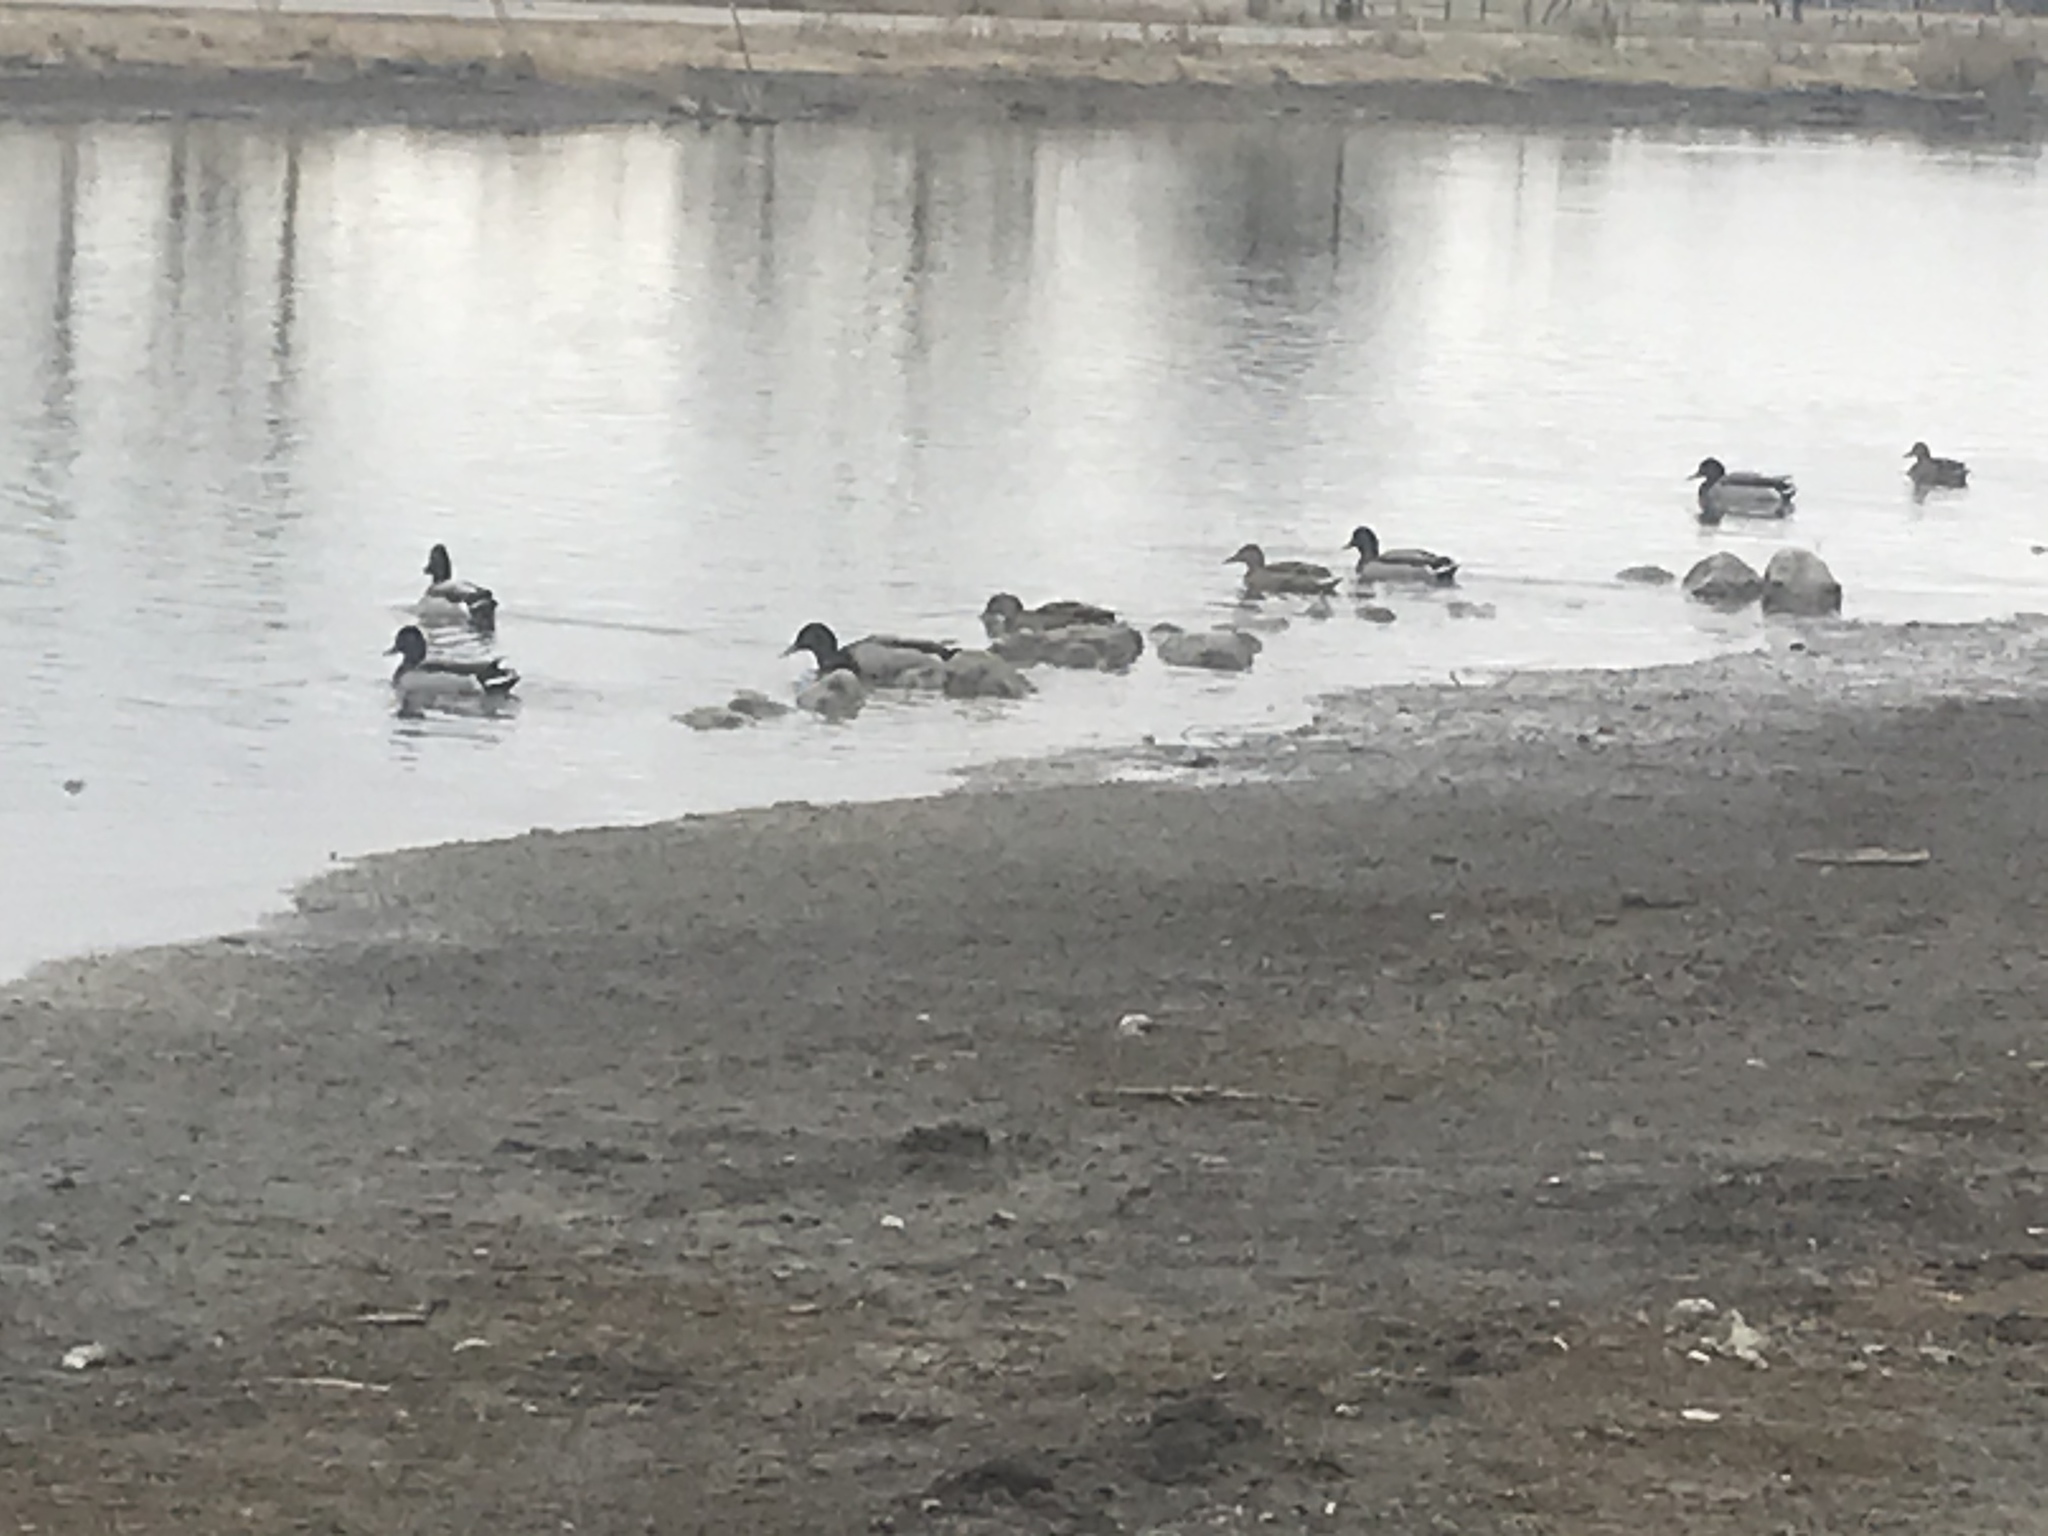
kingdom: Animalia
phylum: Chordata
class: Aves
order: Anseriformes
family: Anatidae
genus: Anas
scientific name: Anas platyrhynchos
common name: Mallard
